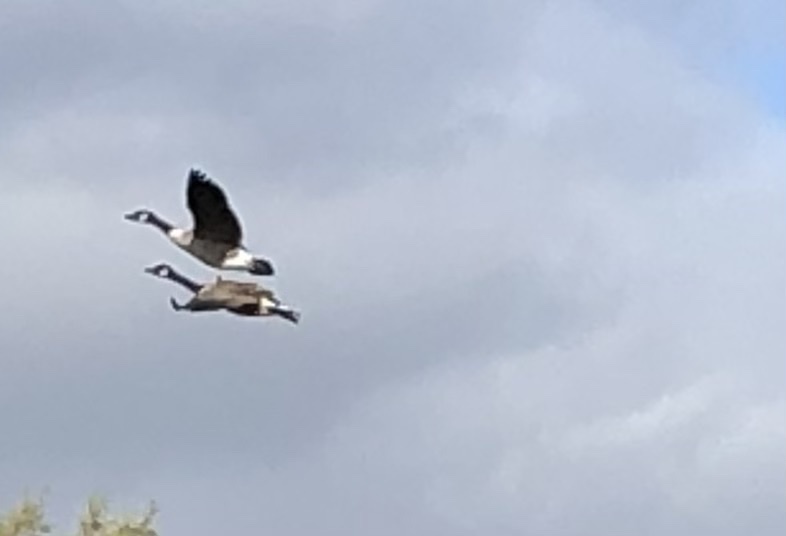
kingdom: Animalia
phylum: Chordata
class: Aves
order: Anseriformes
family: Anatidae
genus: Branta
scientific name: Branta canadensis
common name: Canada goose
